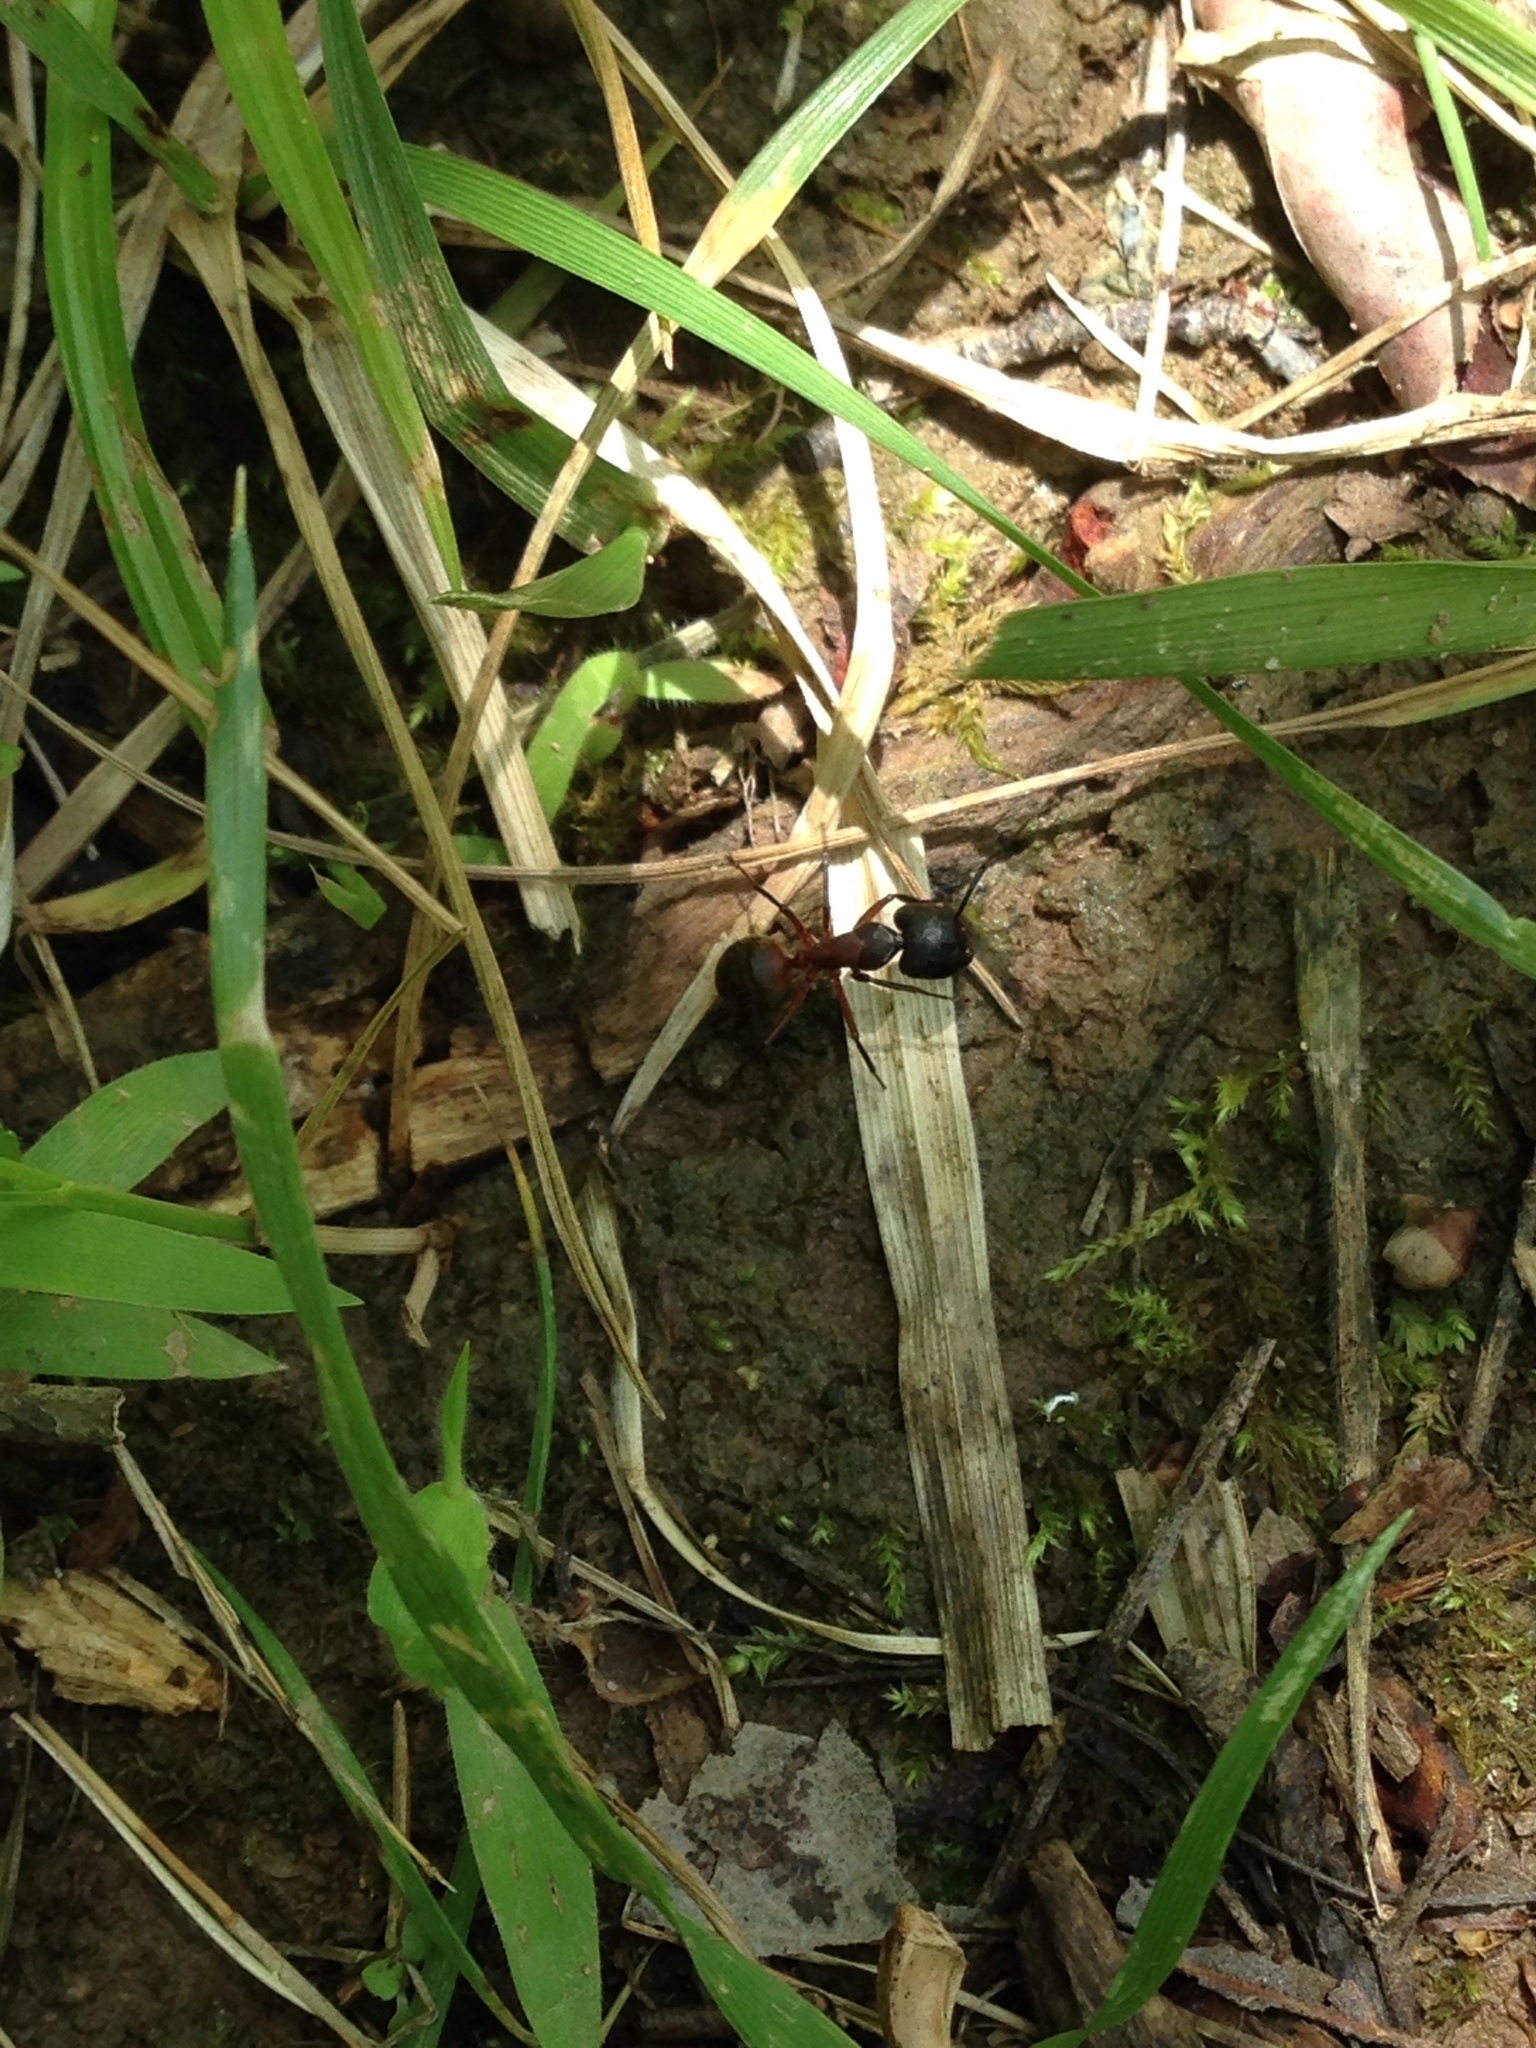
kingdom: Animalia
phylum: Arthropoda
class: Insecta
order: Hymenoptera
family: Formicidae
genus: Camponotus
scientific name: Camponotus chromaiodes
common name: Red carpenter ant
